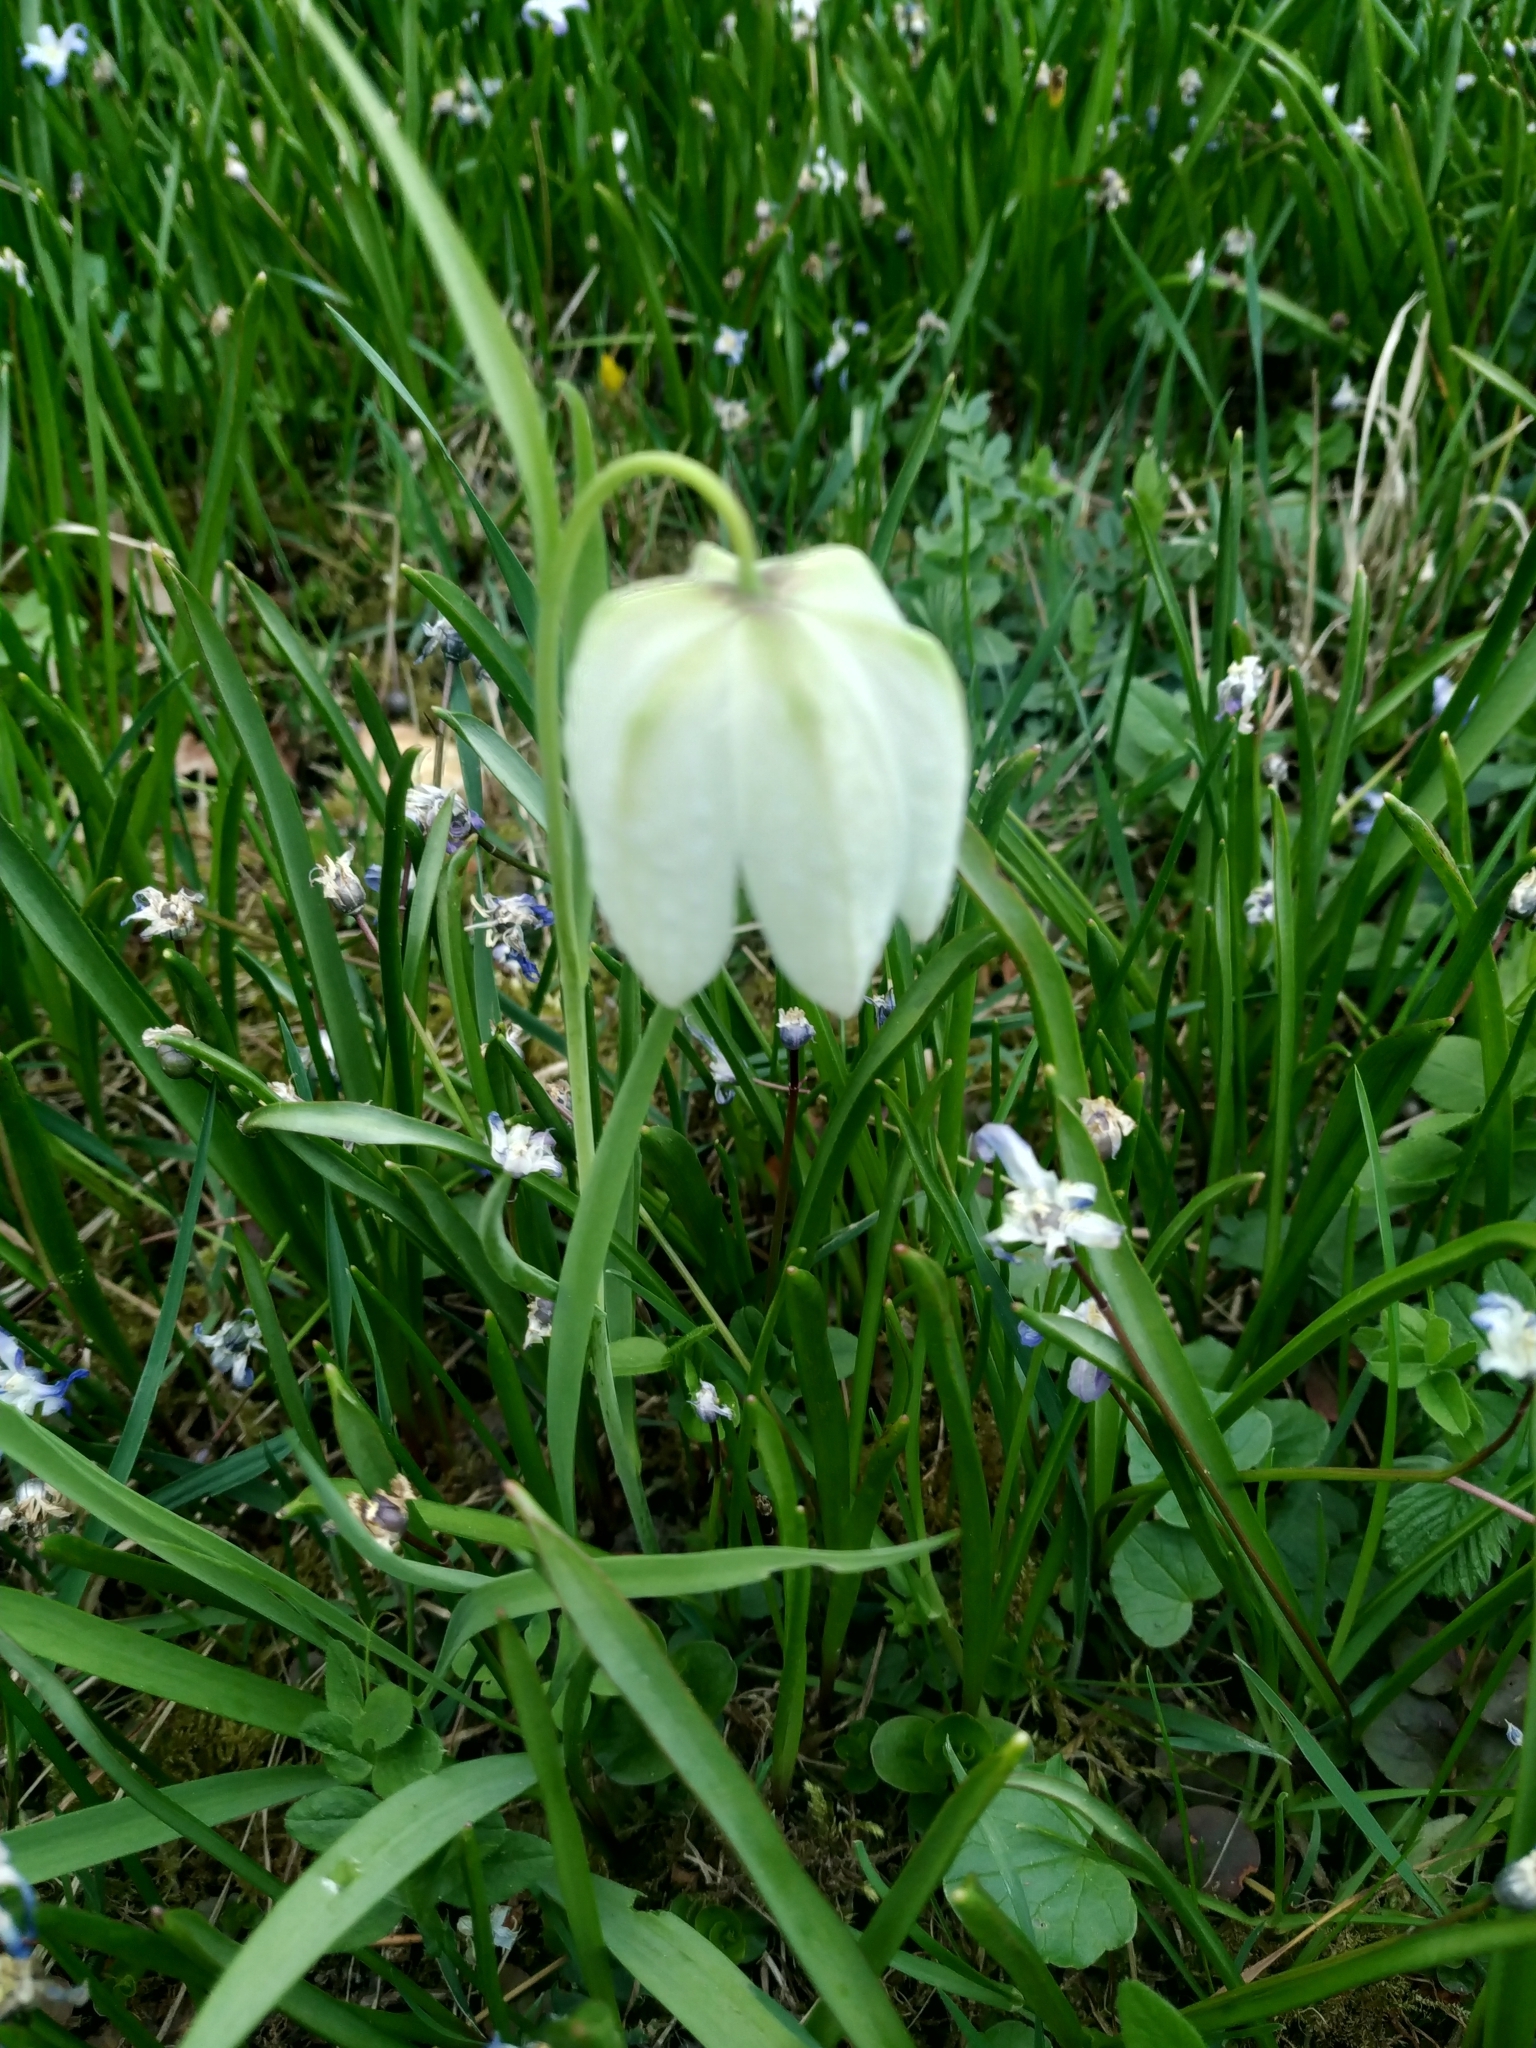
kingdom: Plantae
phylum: Tracheophyta
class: Liliopsida
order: Liliales
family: Liliaceae
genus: Fritillaria
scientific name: Fritillaria meleagris
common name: Fritillary
